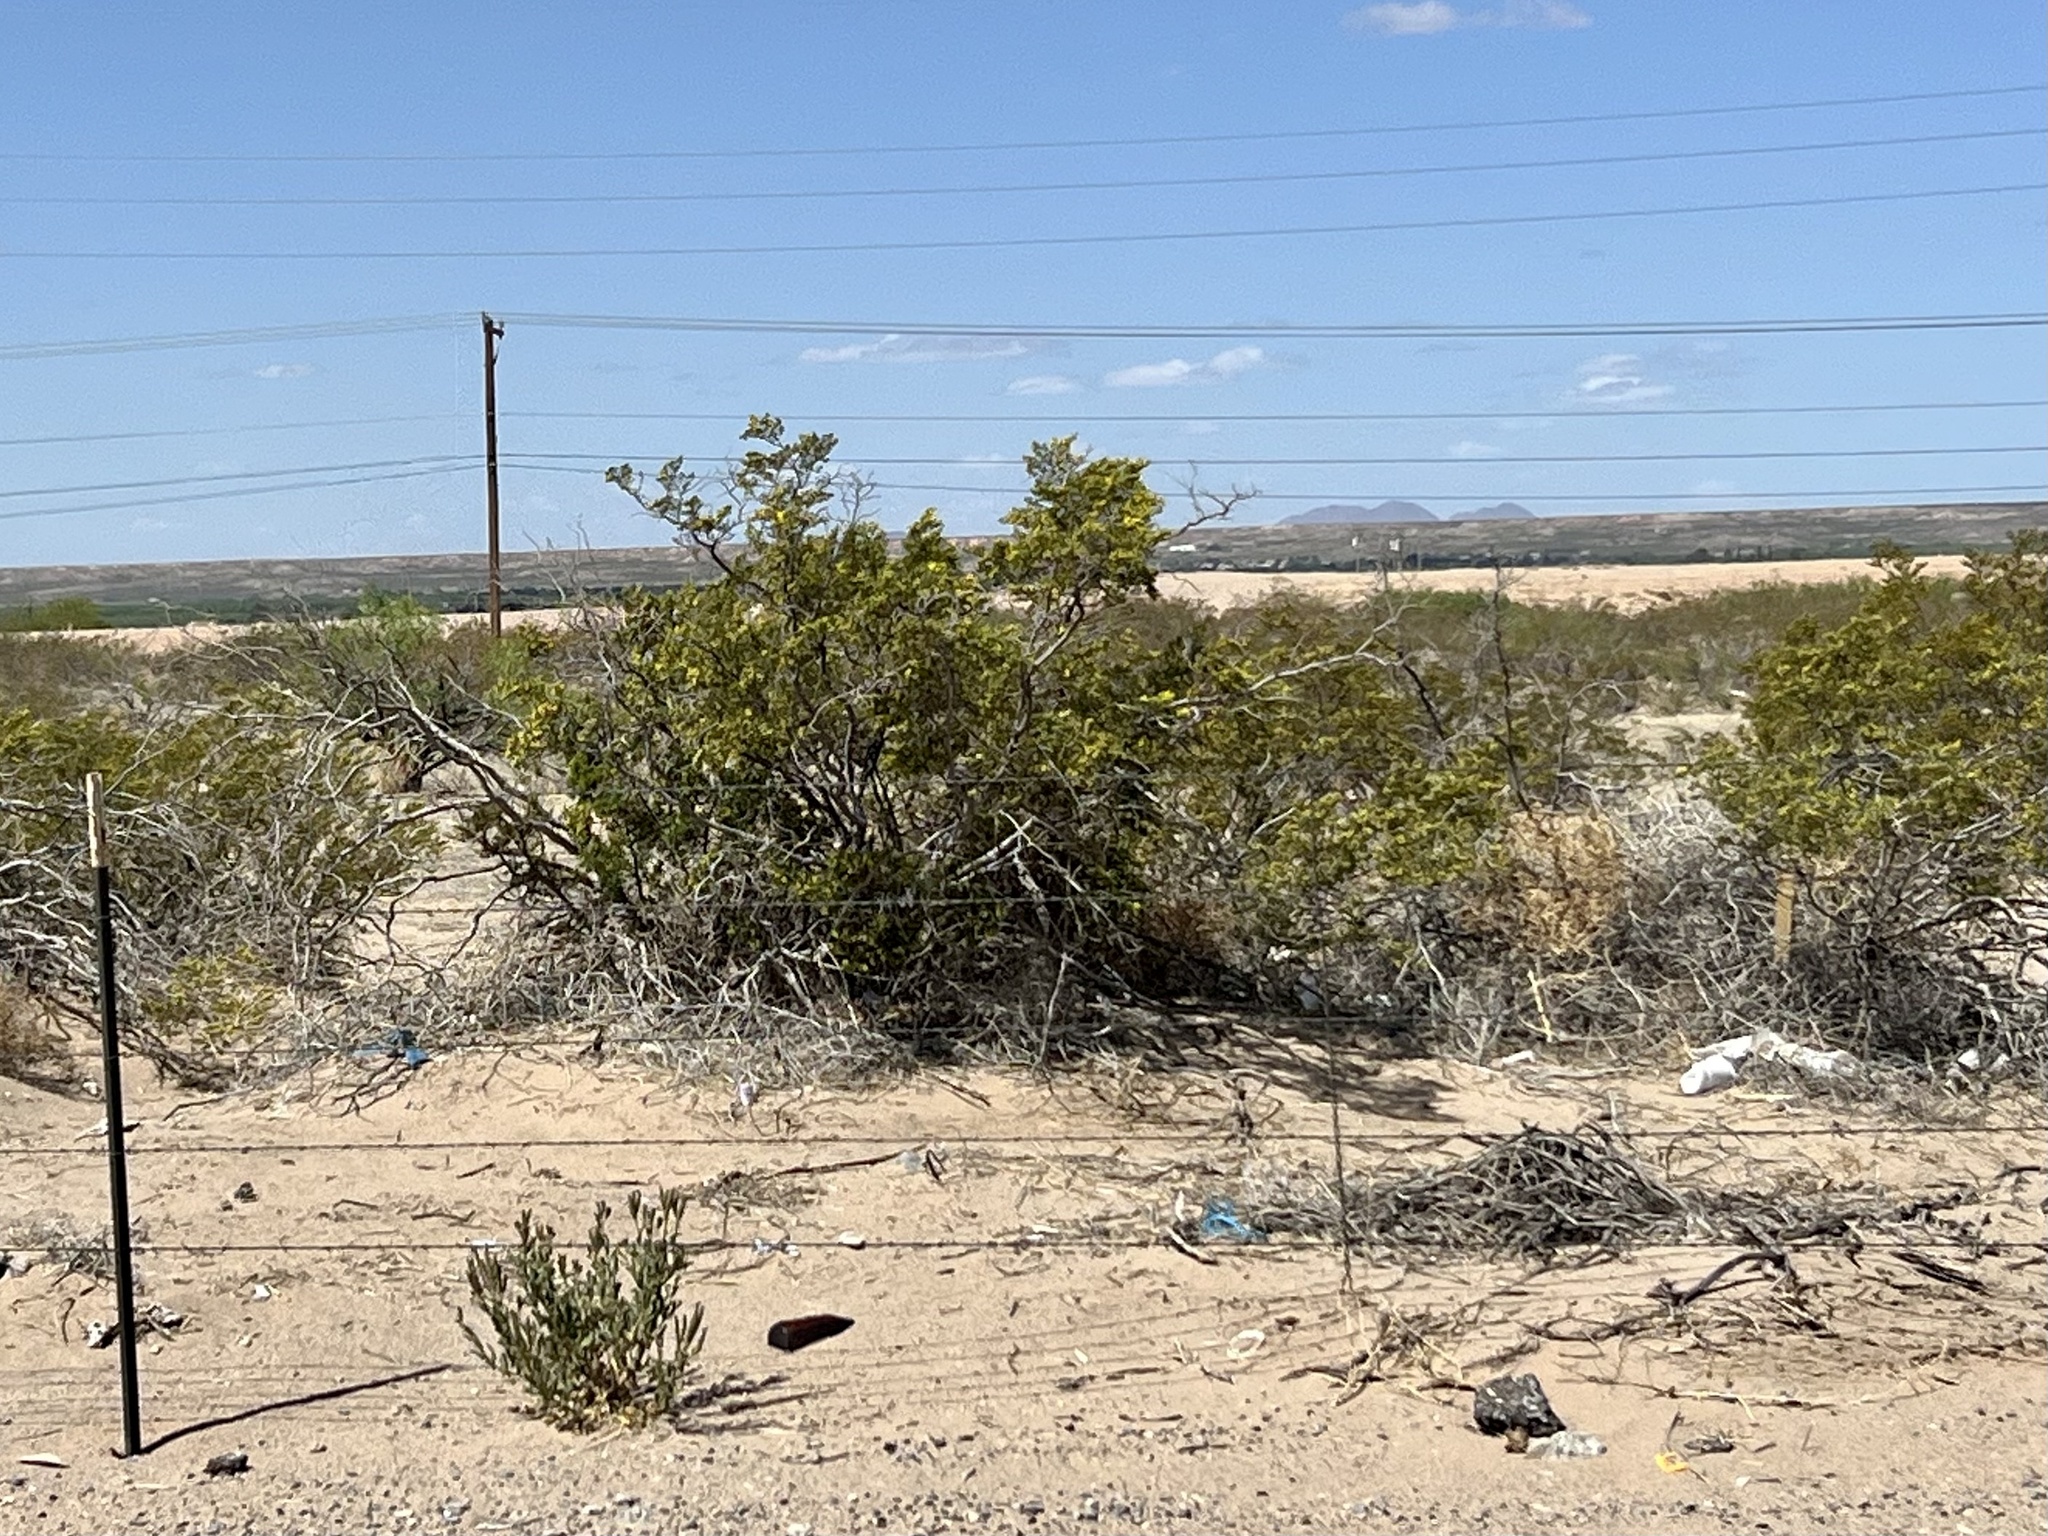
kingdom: Plantae
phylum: Tracheophyta
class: Magnoliopsida
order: Zygophyllales
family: Zygophyllaceae
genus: Larrea
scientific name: Larrea tridentata
